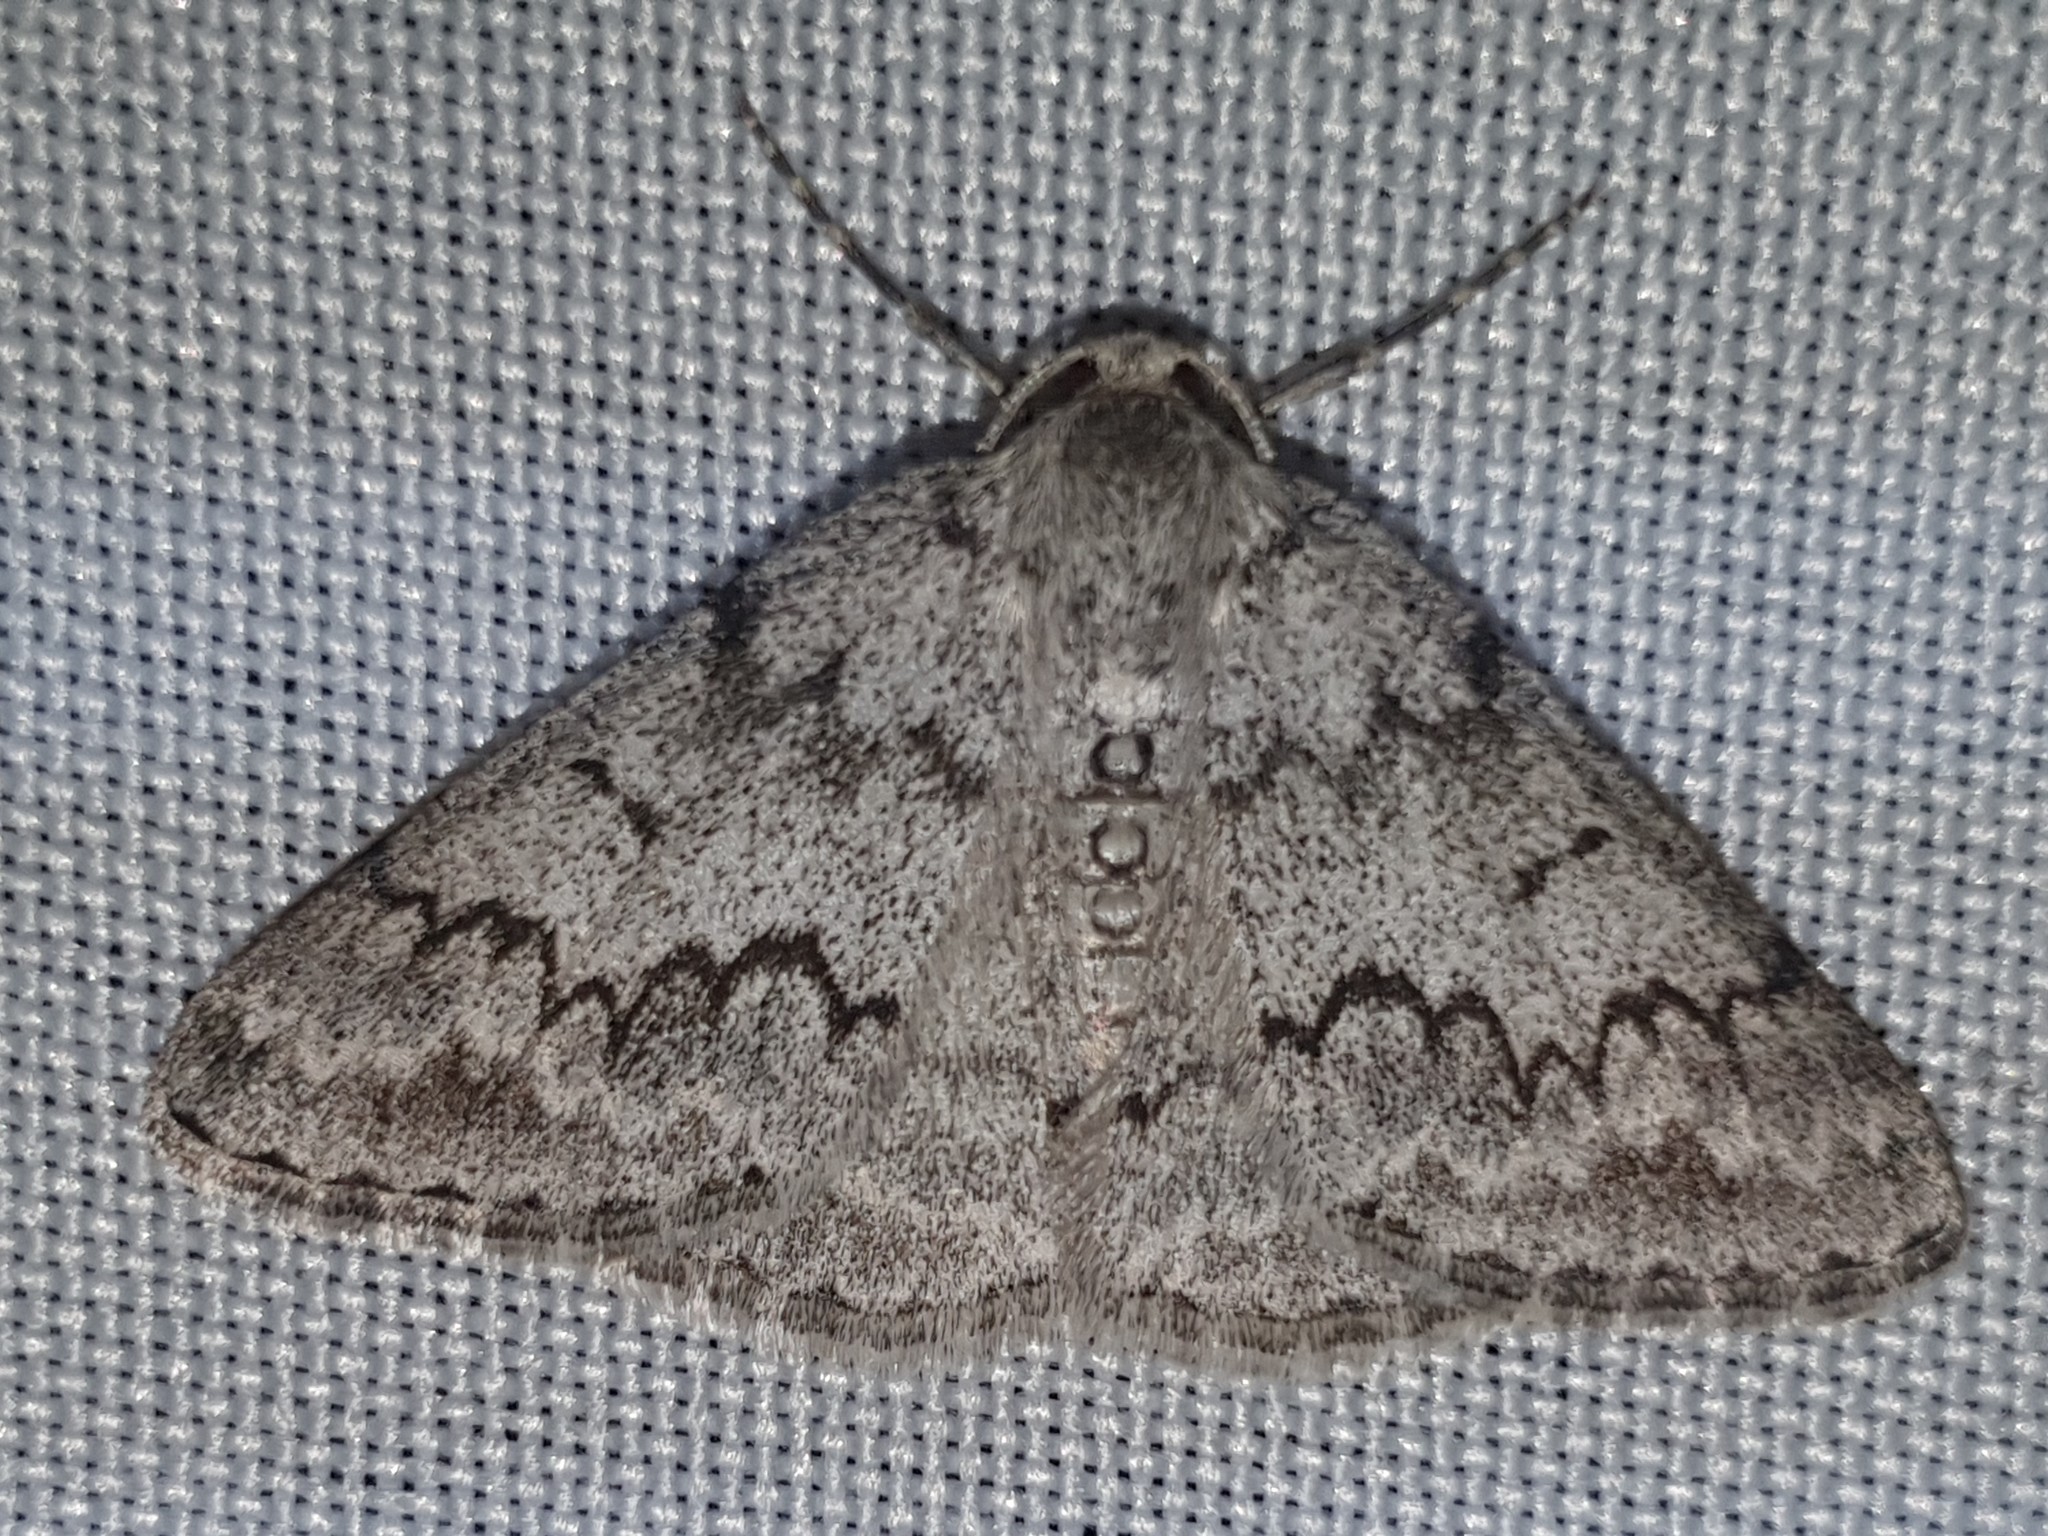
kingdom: Animalia
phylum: Arthropoda
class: Insecta
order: Lepidoptera
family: Geometridae
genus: Pseudoterpna
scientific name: Pseudoterpna coronillaria
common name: Jersey emerald
